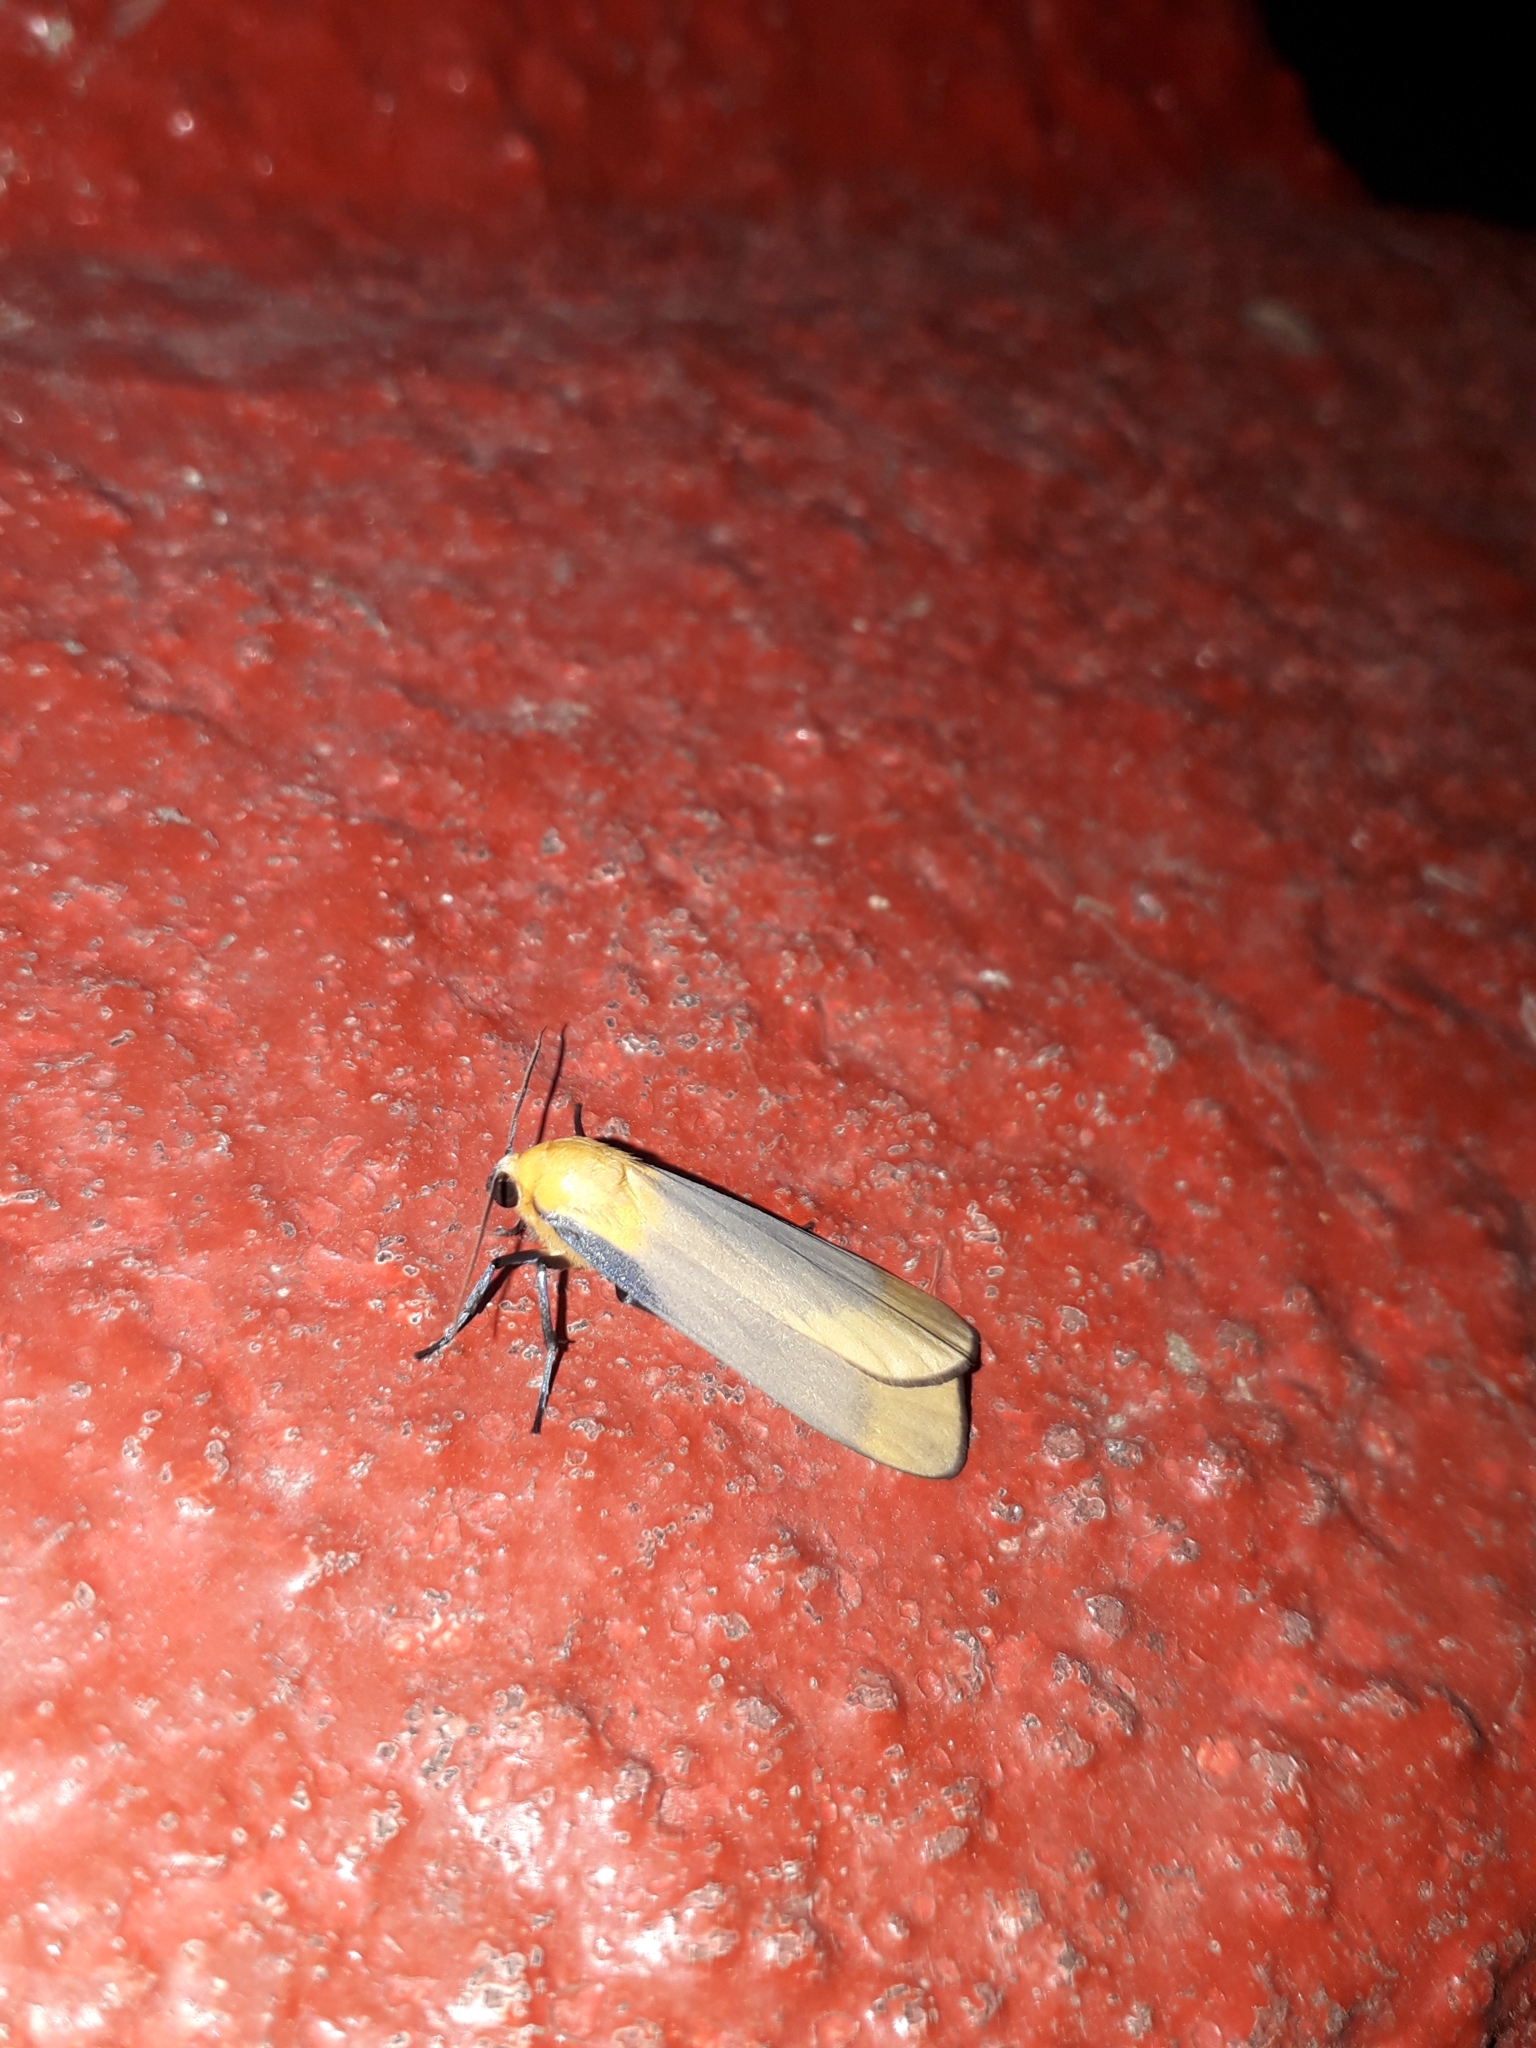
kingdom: Animalia
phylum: Arthropoda
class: Insecta
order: Lepidoptera
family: Erebidae
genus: Lithosia
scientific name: Lithosia quadra
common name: Four-spotted footman
